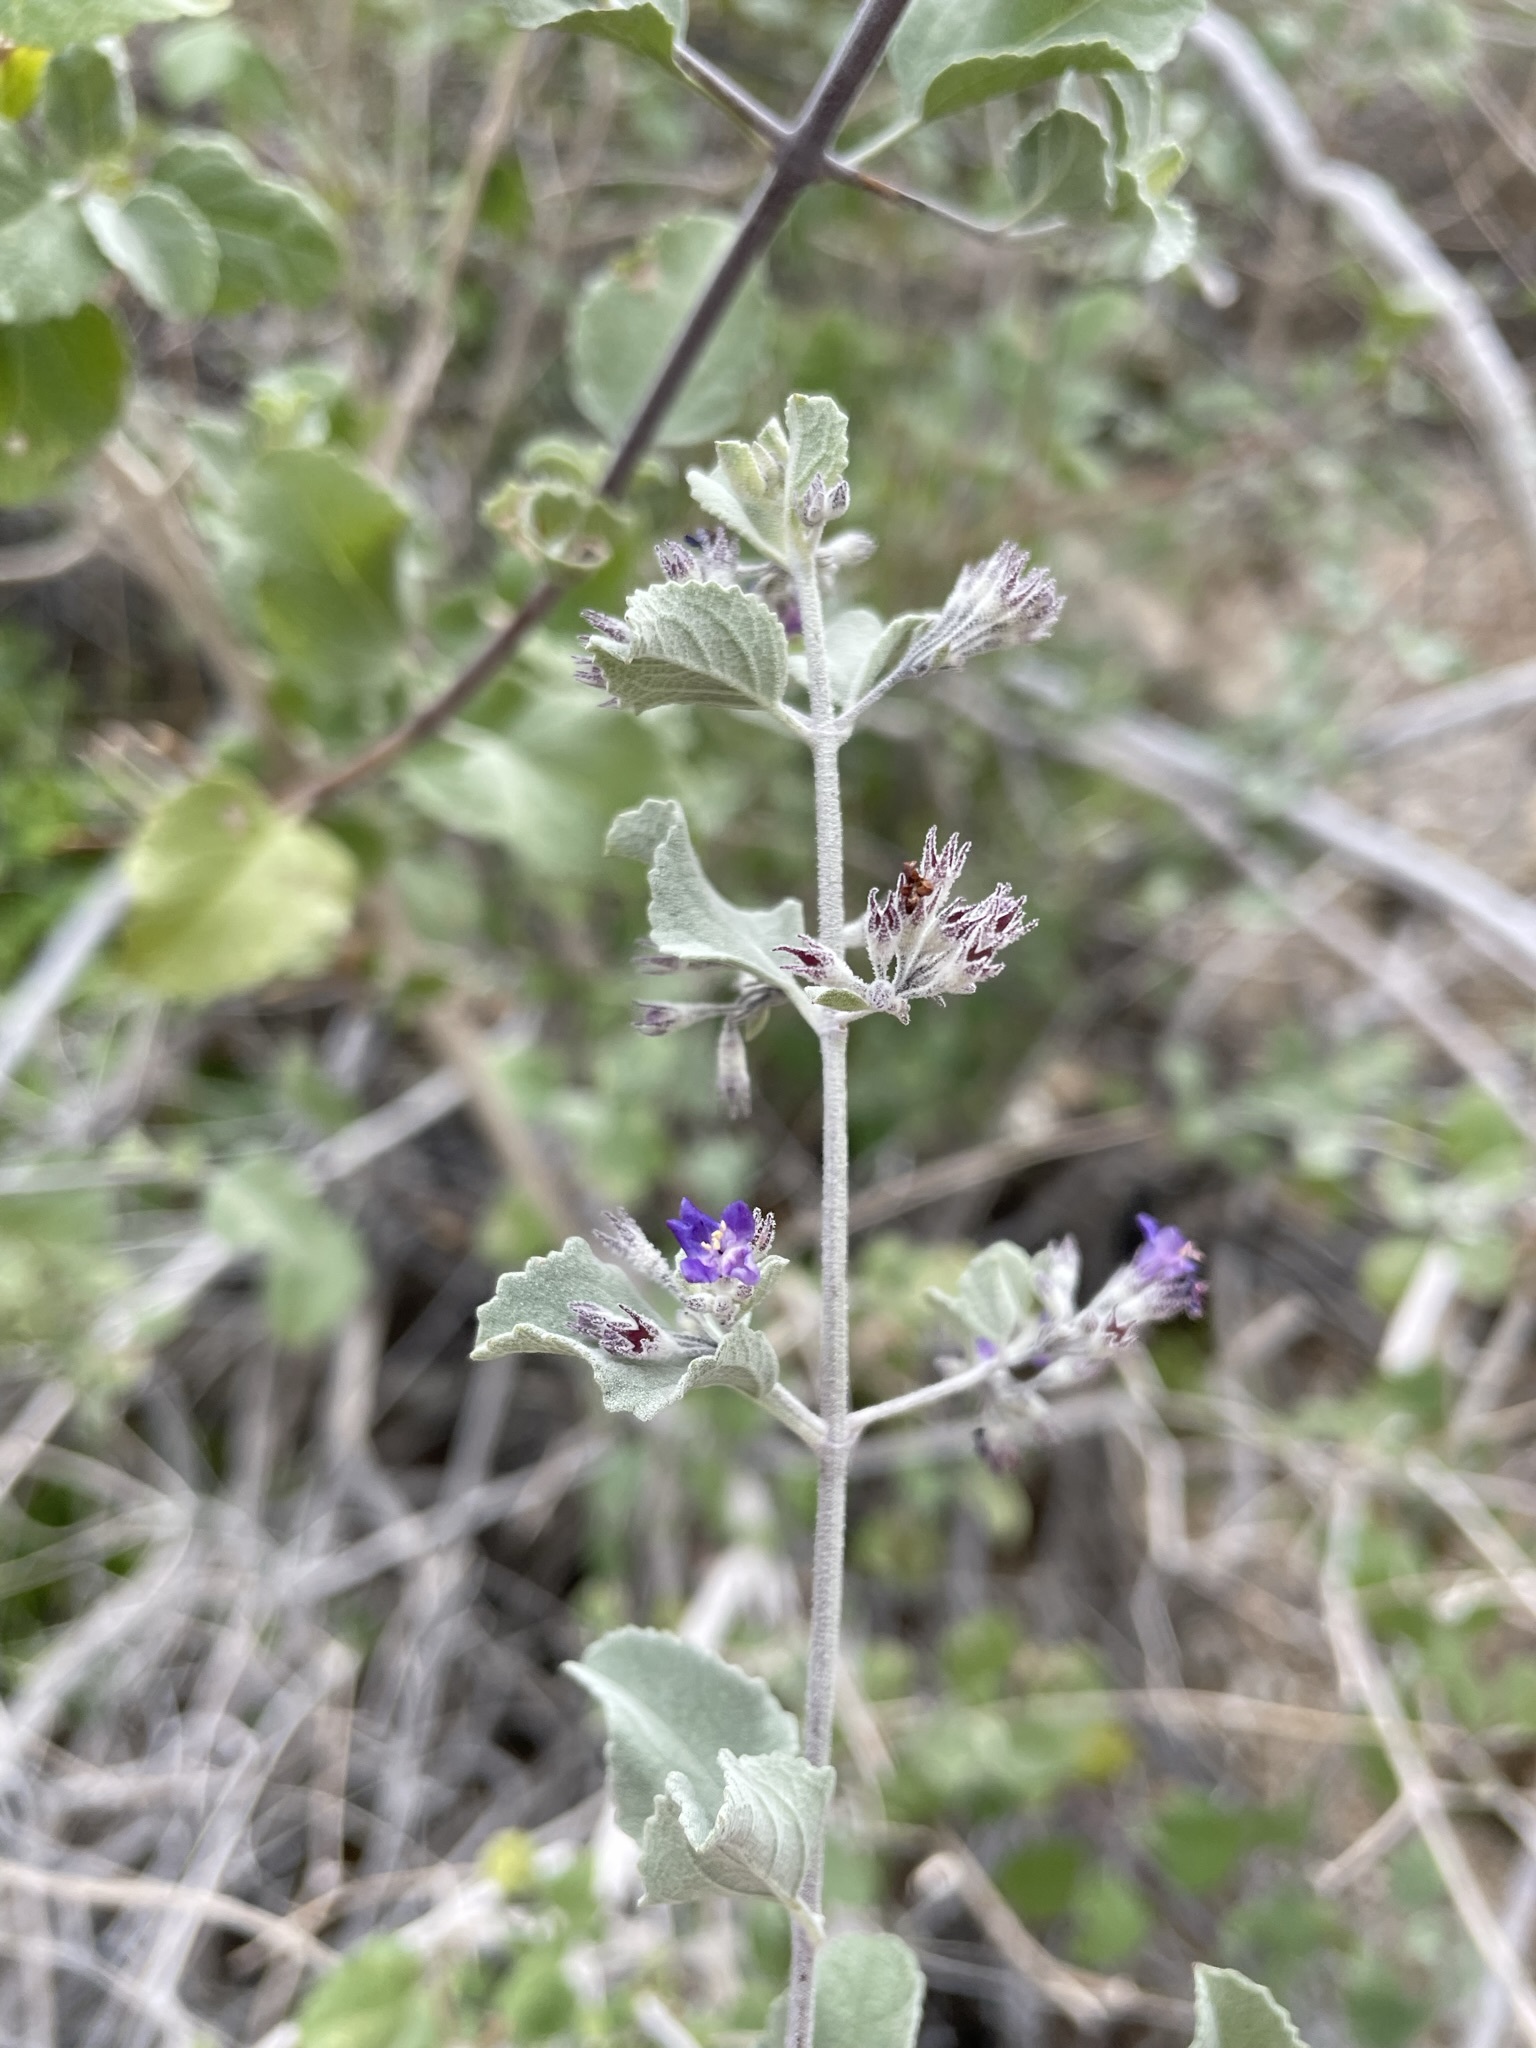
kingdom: Plantae
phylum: Tracheophyta
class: Magnoliopsida
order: Lamiales
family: Lamiaceae
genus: Condea
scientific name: Condea emoryi
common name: Chia
